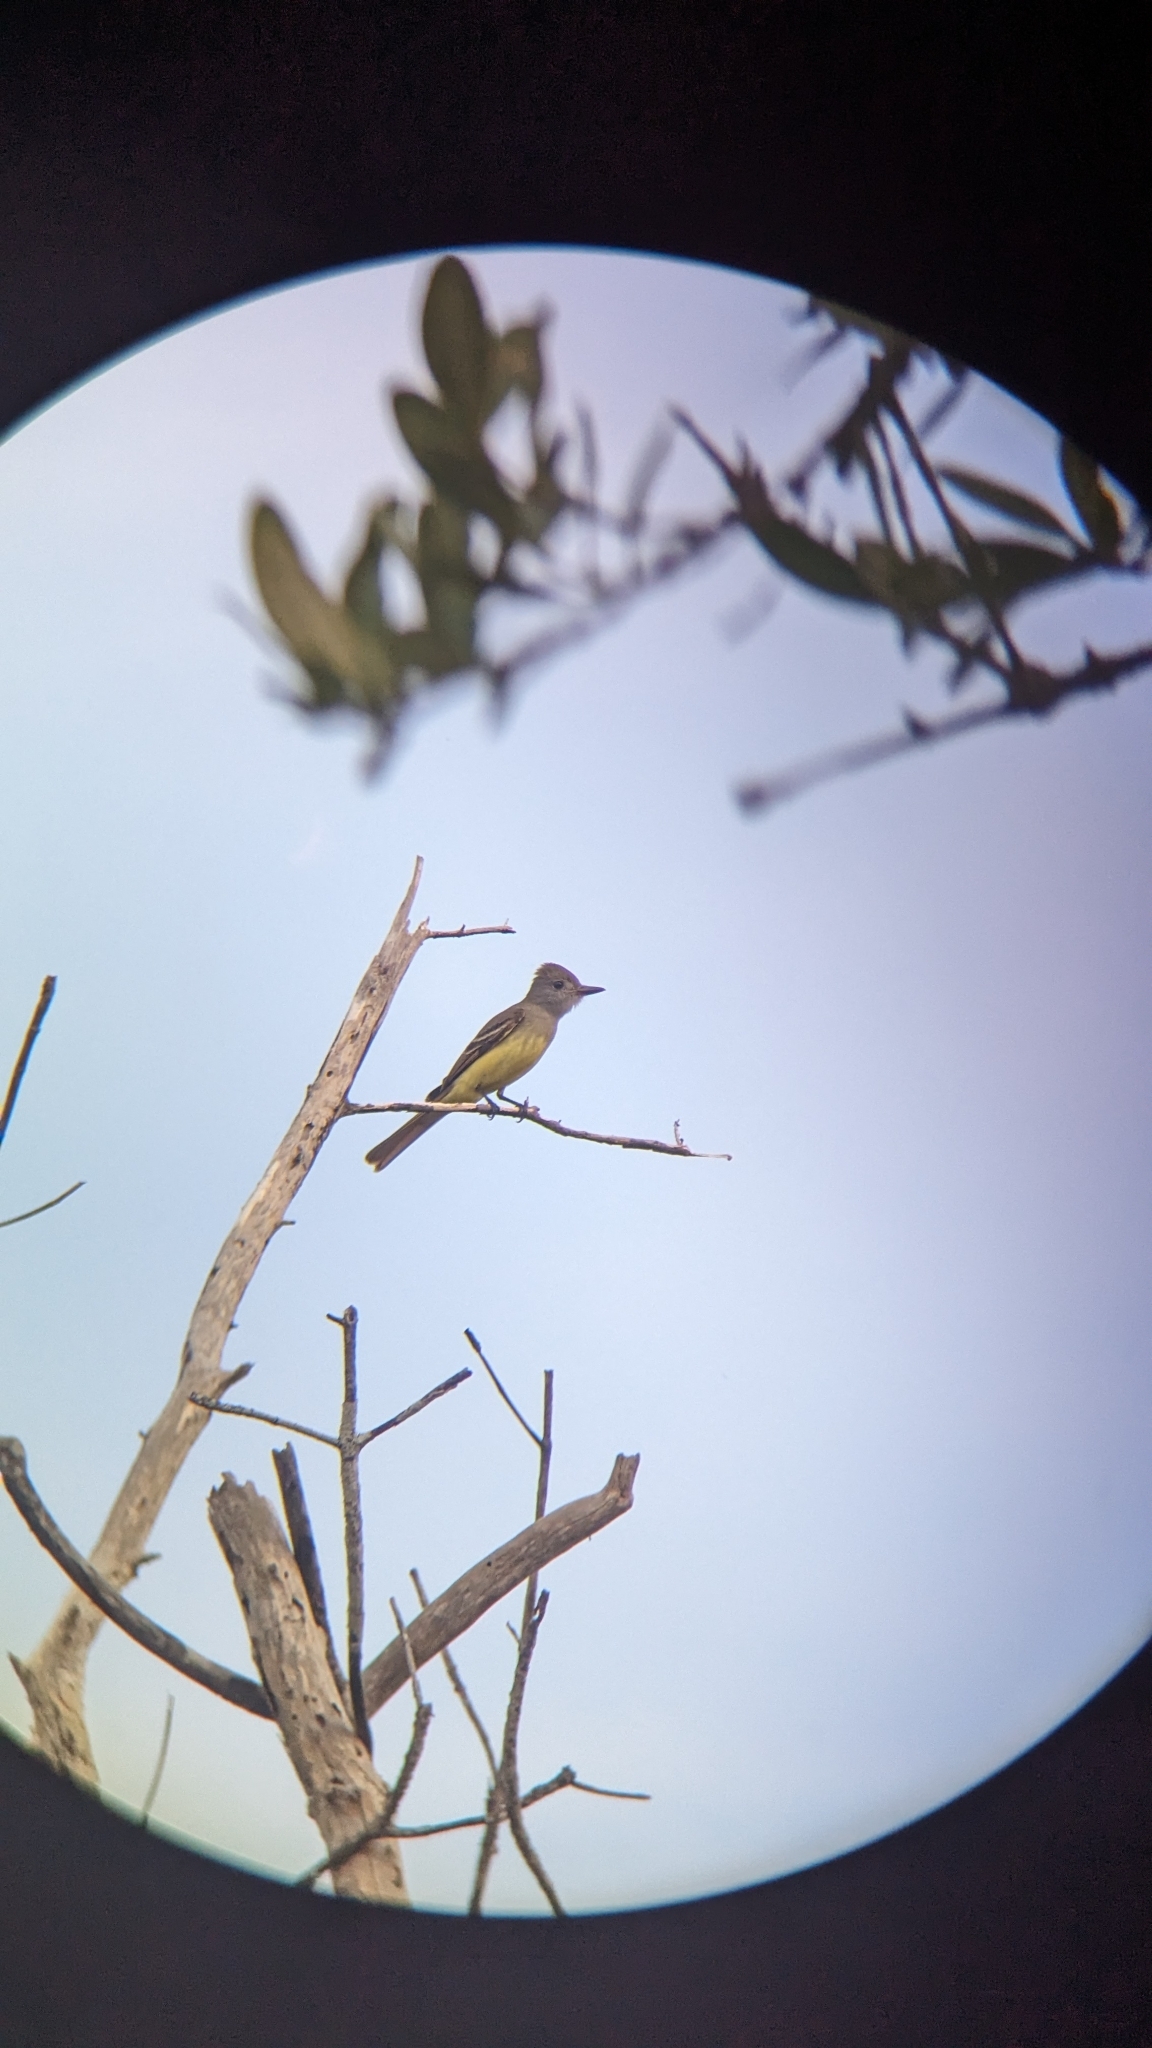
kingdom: Animalia
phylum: Chordata
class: Aves
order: Passeriformes
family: Tyrannidae
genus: Myiarchus
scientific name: Myiarchus crinitus
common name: Great crested flycatcher
